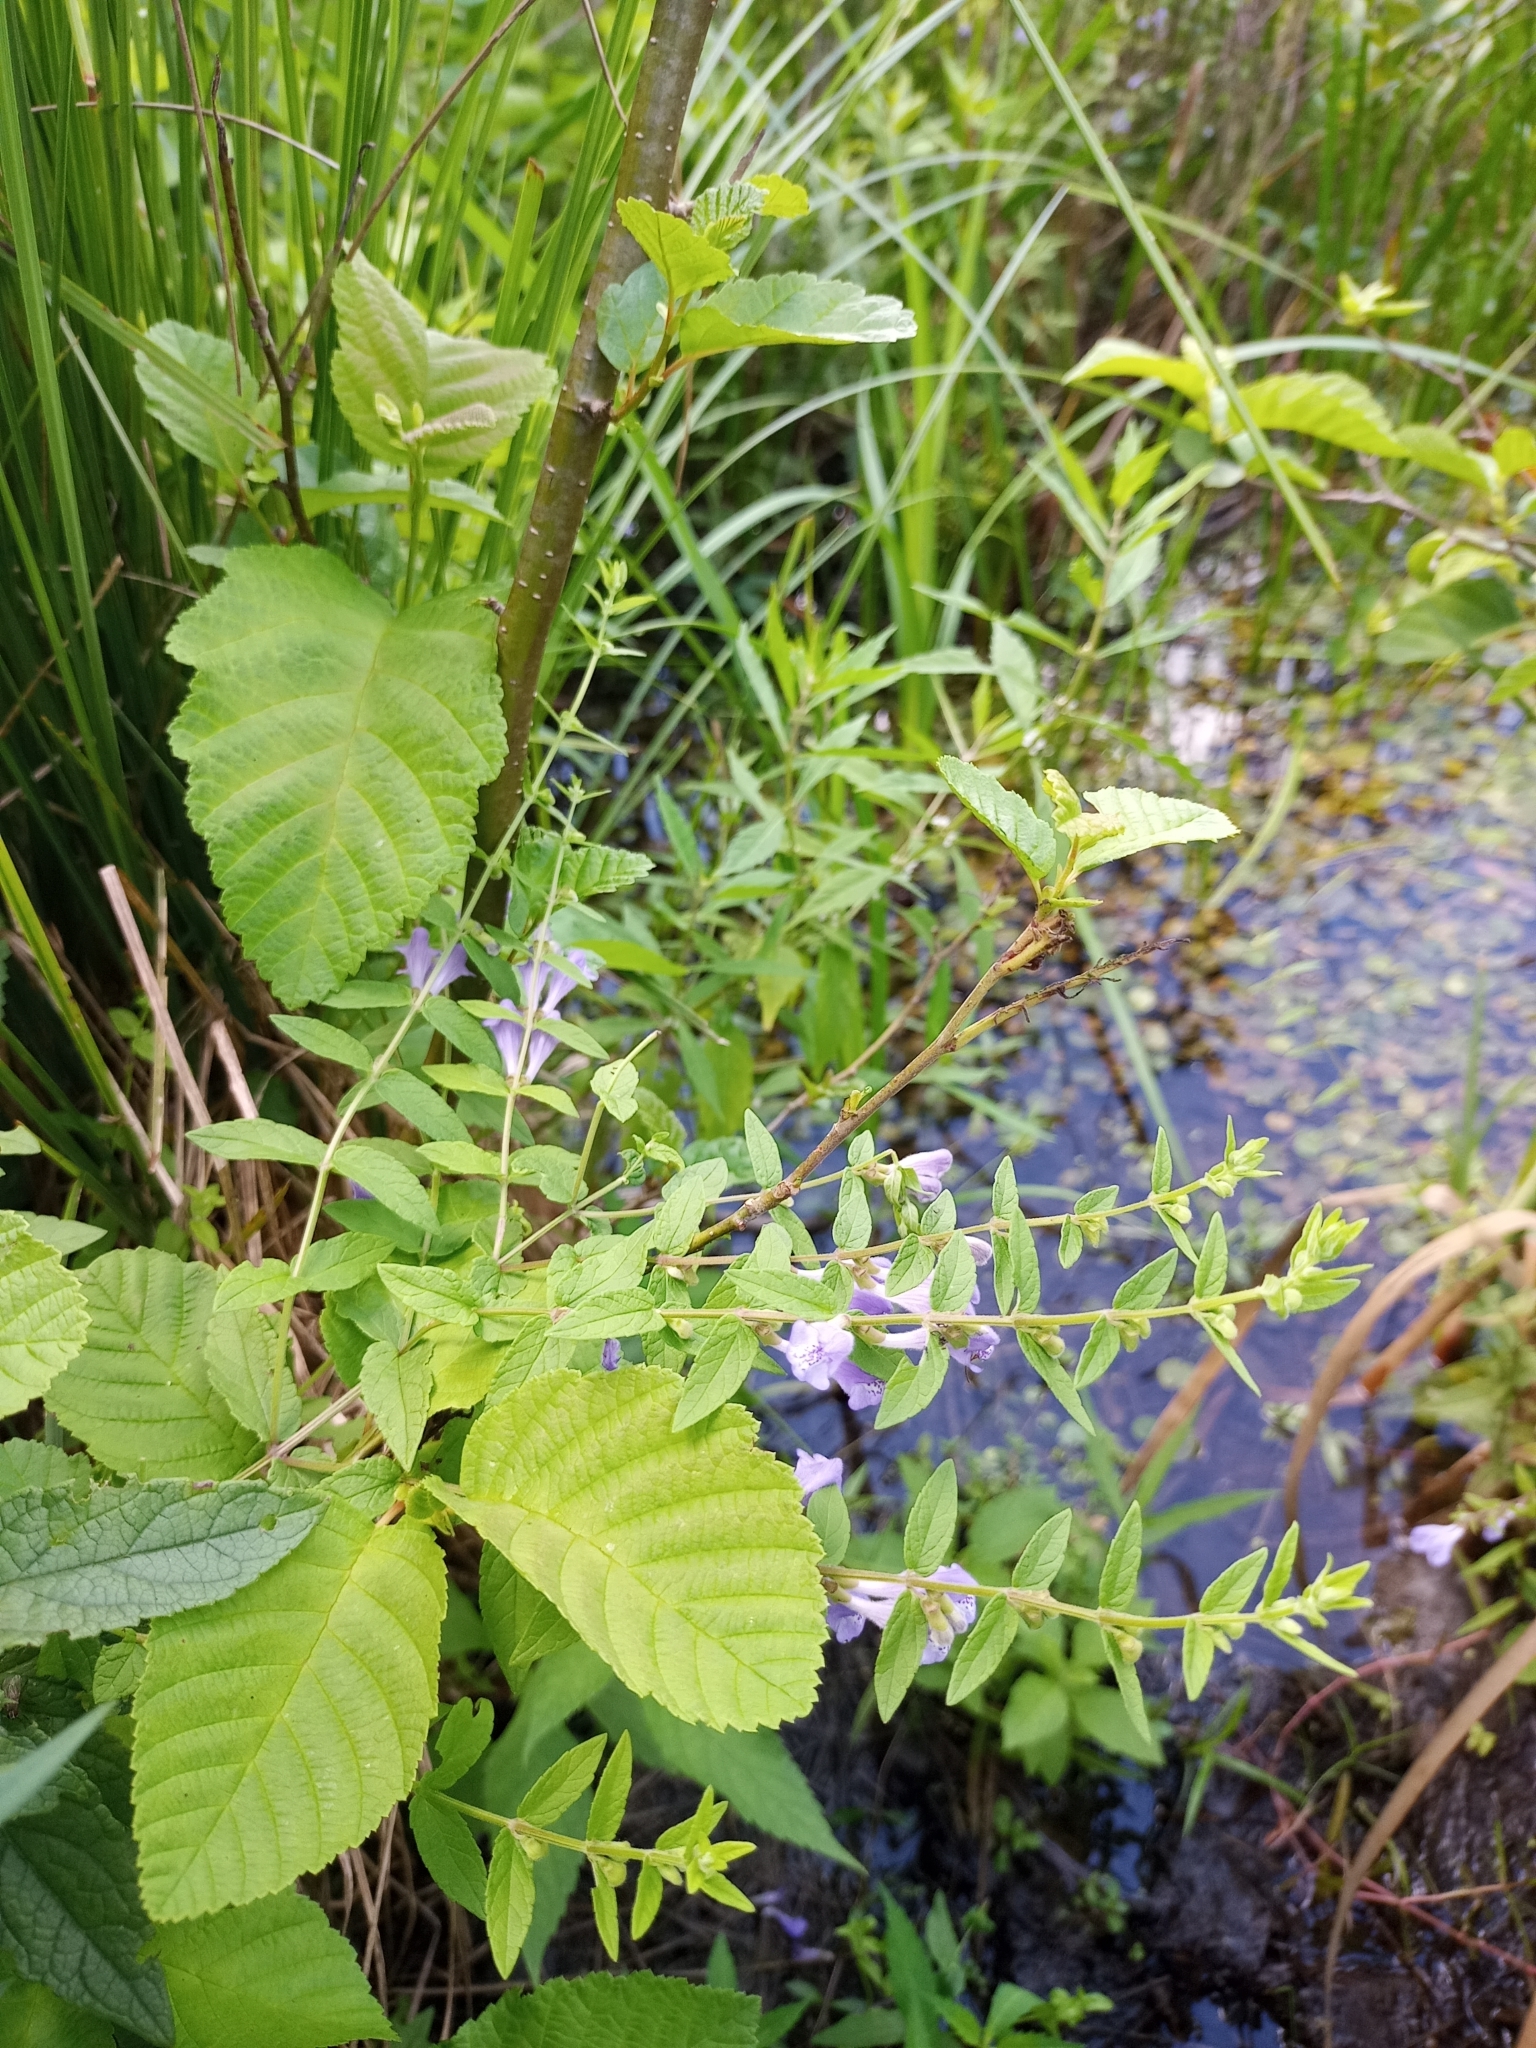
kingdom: Plantae
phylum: Tracheophyta
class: Magnoliopsida
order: Lamiales
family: Lamiaceae
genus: Scutellaria
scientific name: Scutellaria galericulata
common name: Skullcap
